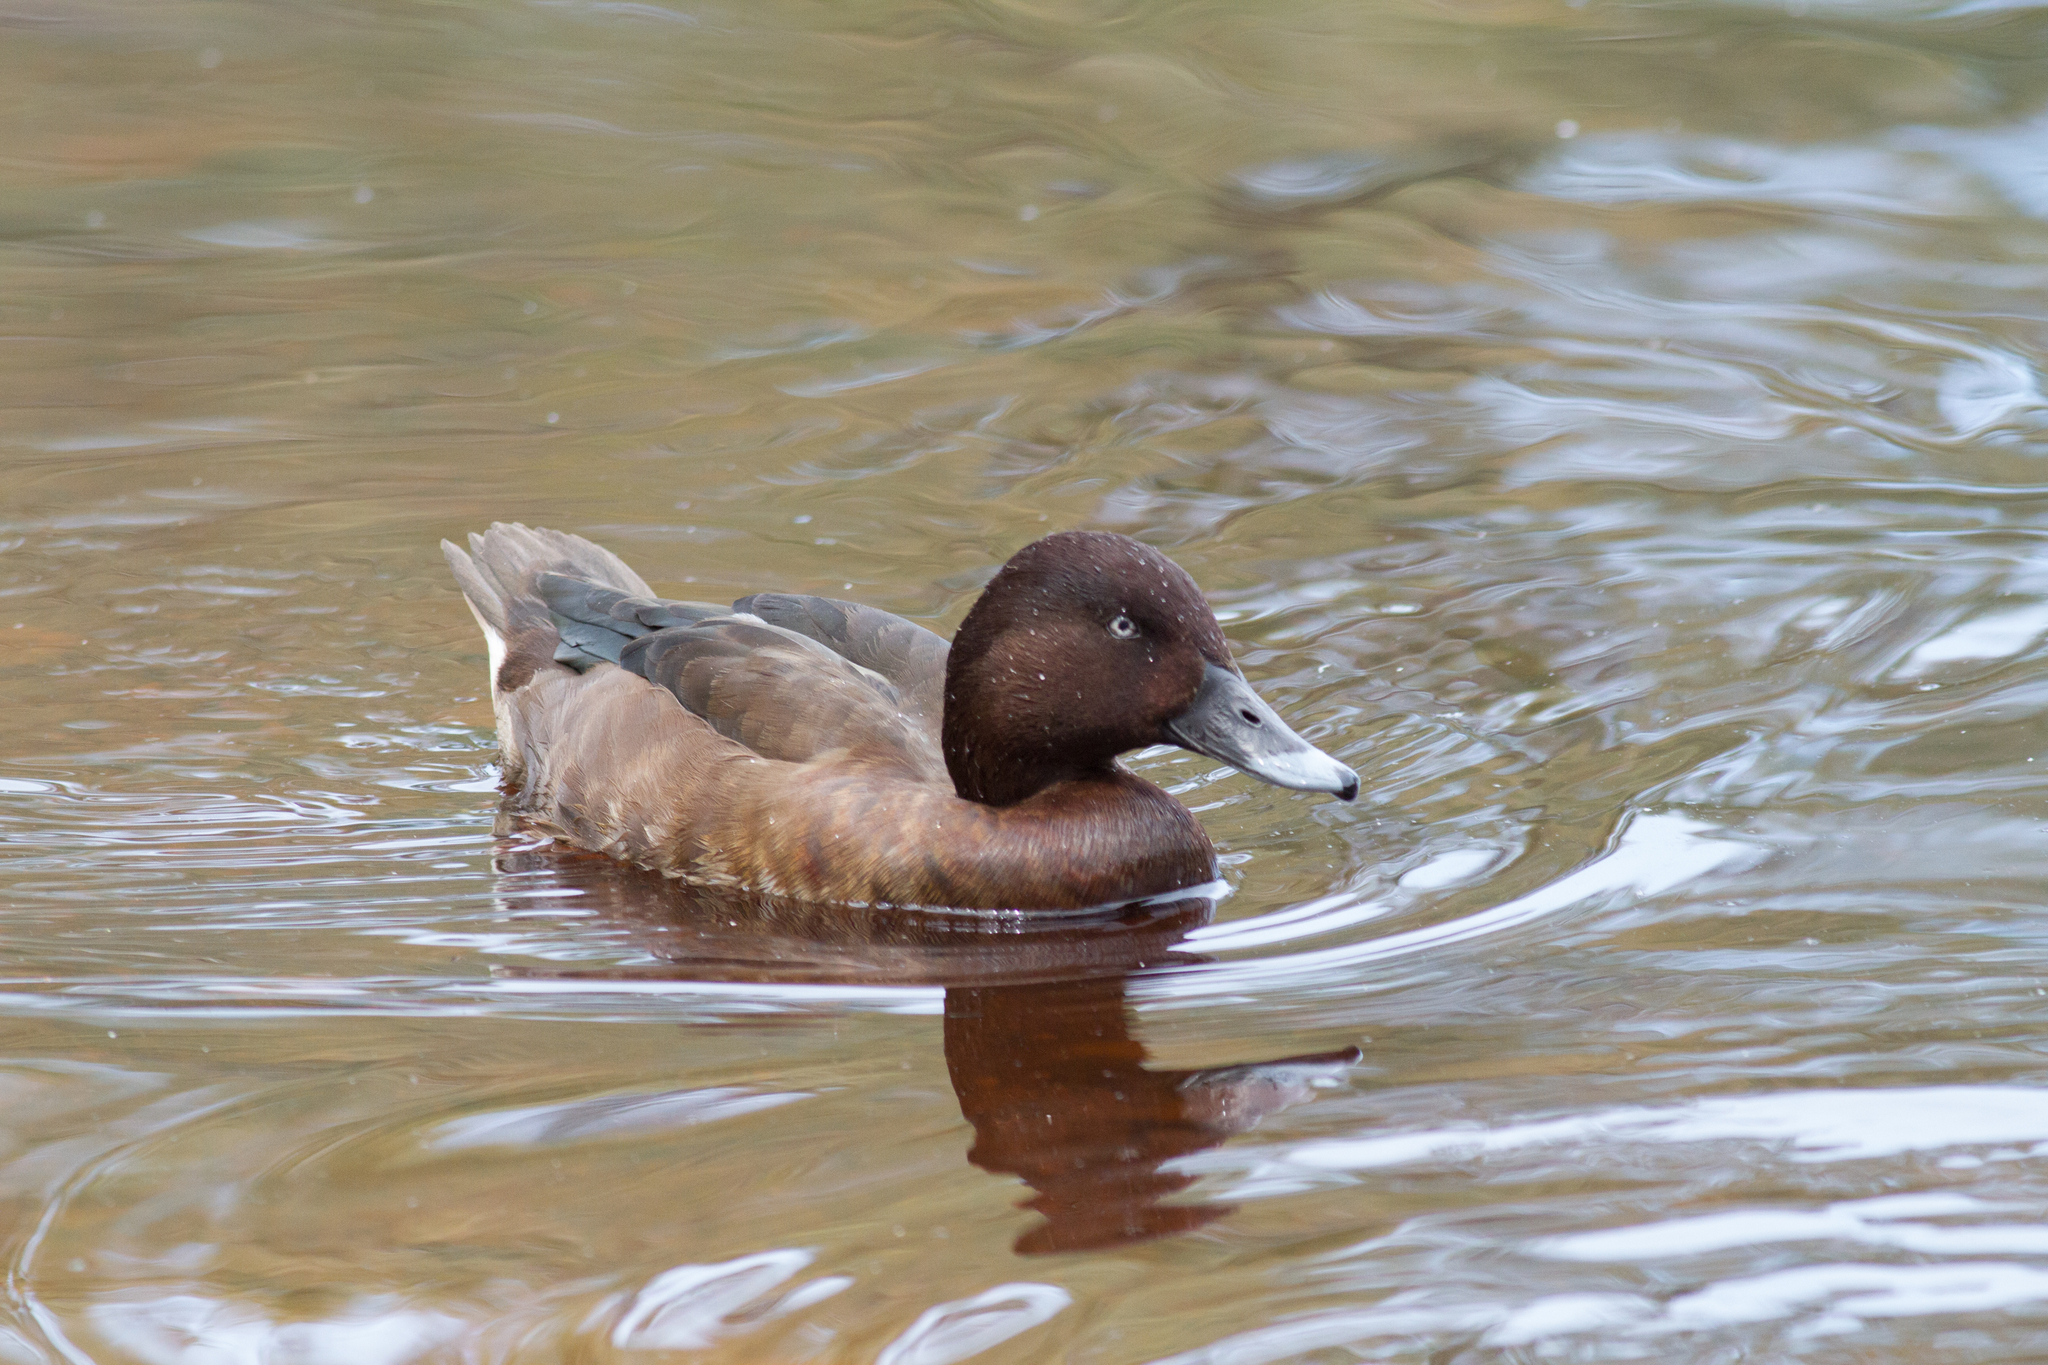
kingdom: Animalia
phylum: Chordata
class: Aves
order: Anseriformes
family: Anatidae
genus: Aythya
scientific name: Aythya australis
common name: Hardhead
